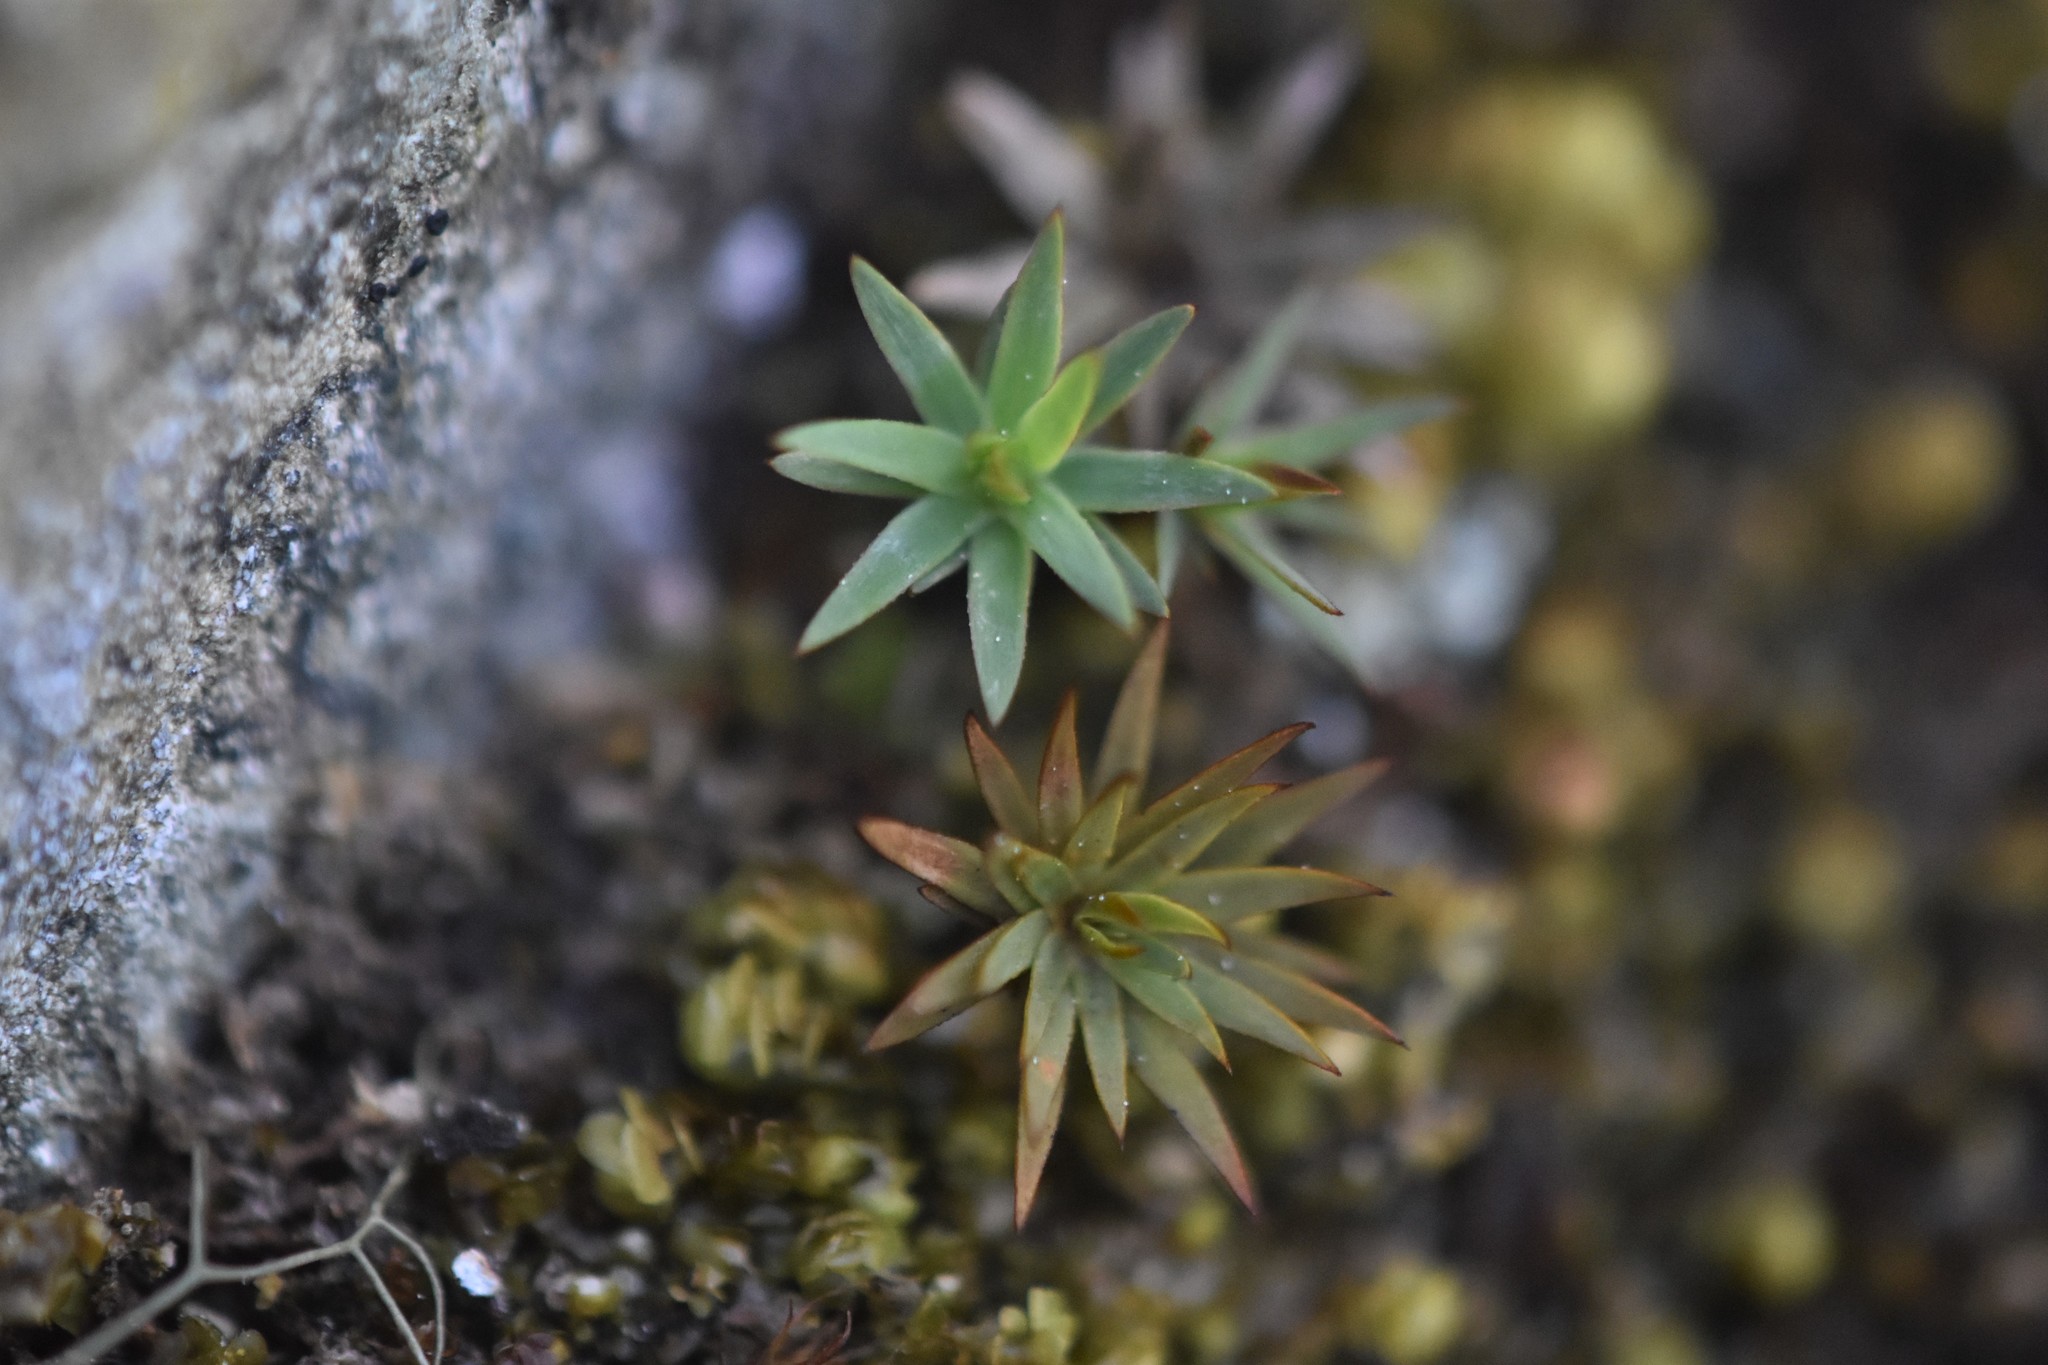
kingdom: Plantae
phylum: Bryophyta
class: Polytrichopsida
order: Polytrichales
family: Polytrichaceae
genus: Pogonatum
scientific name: Pogonatum urnigerum
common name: Urn hair moss
